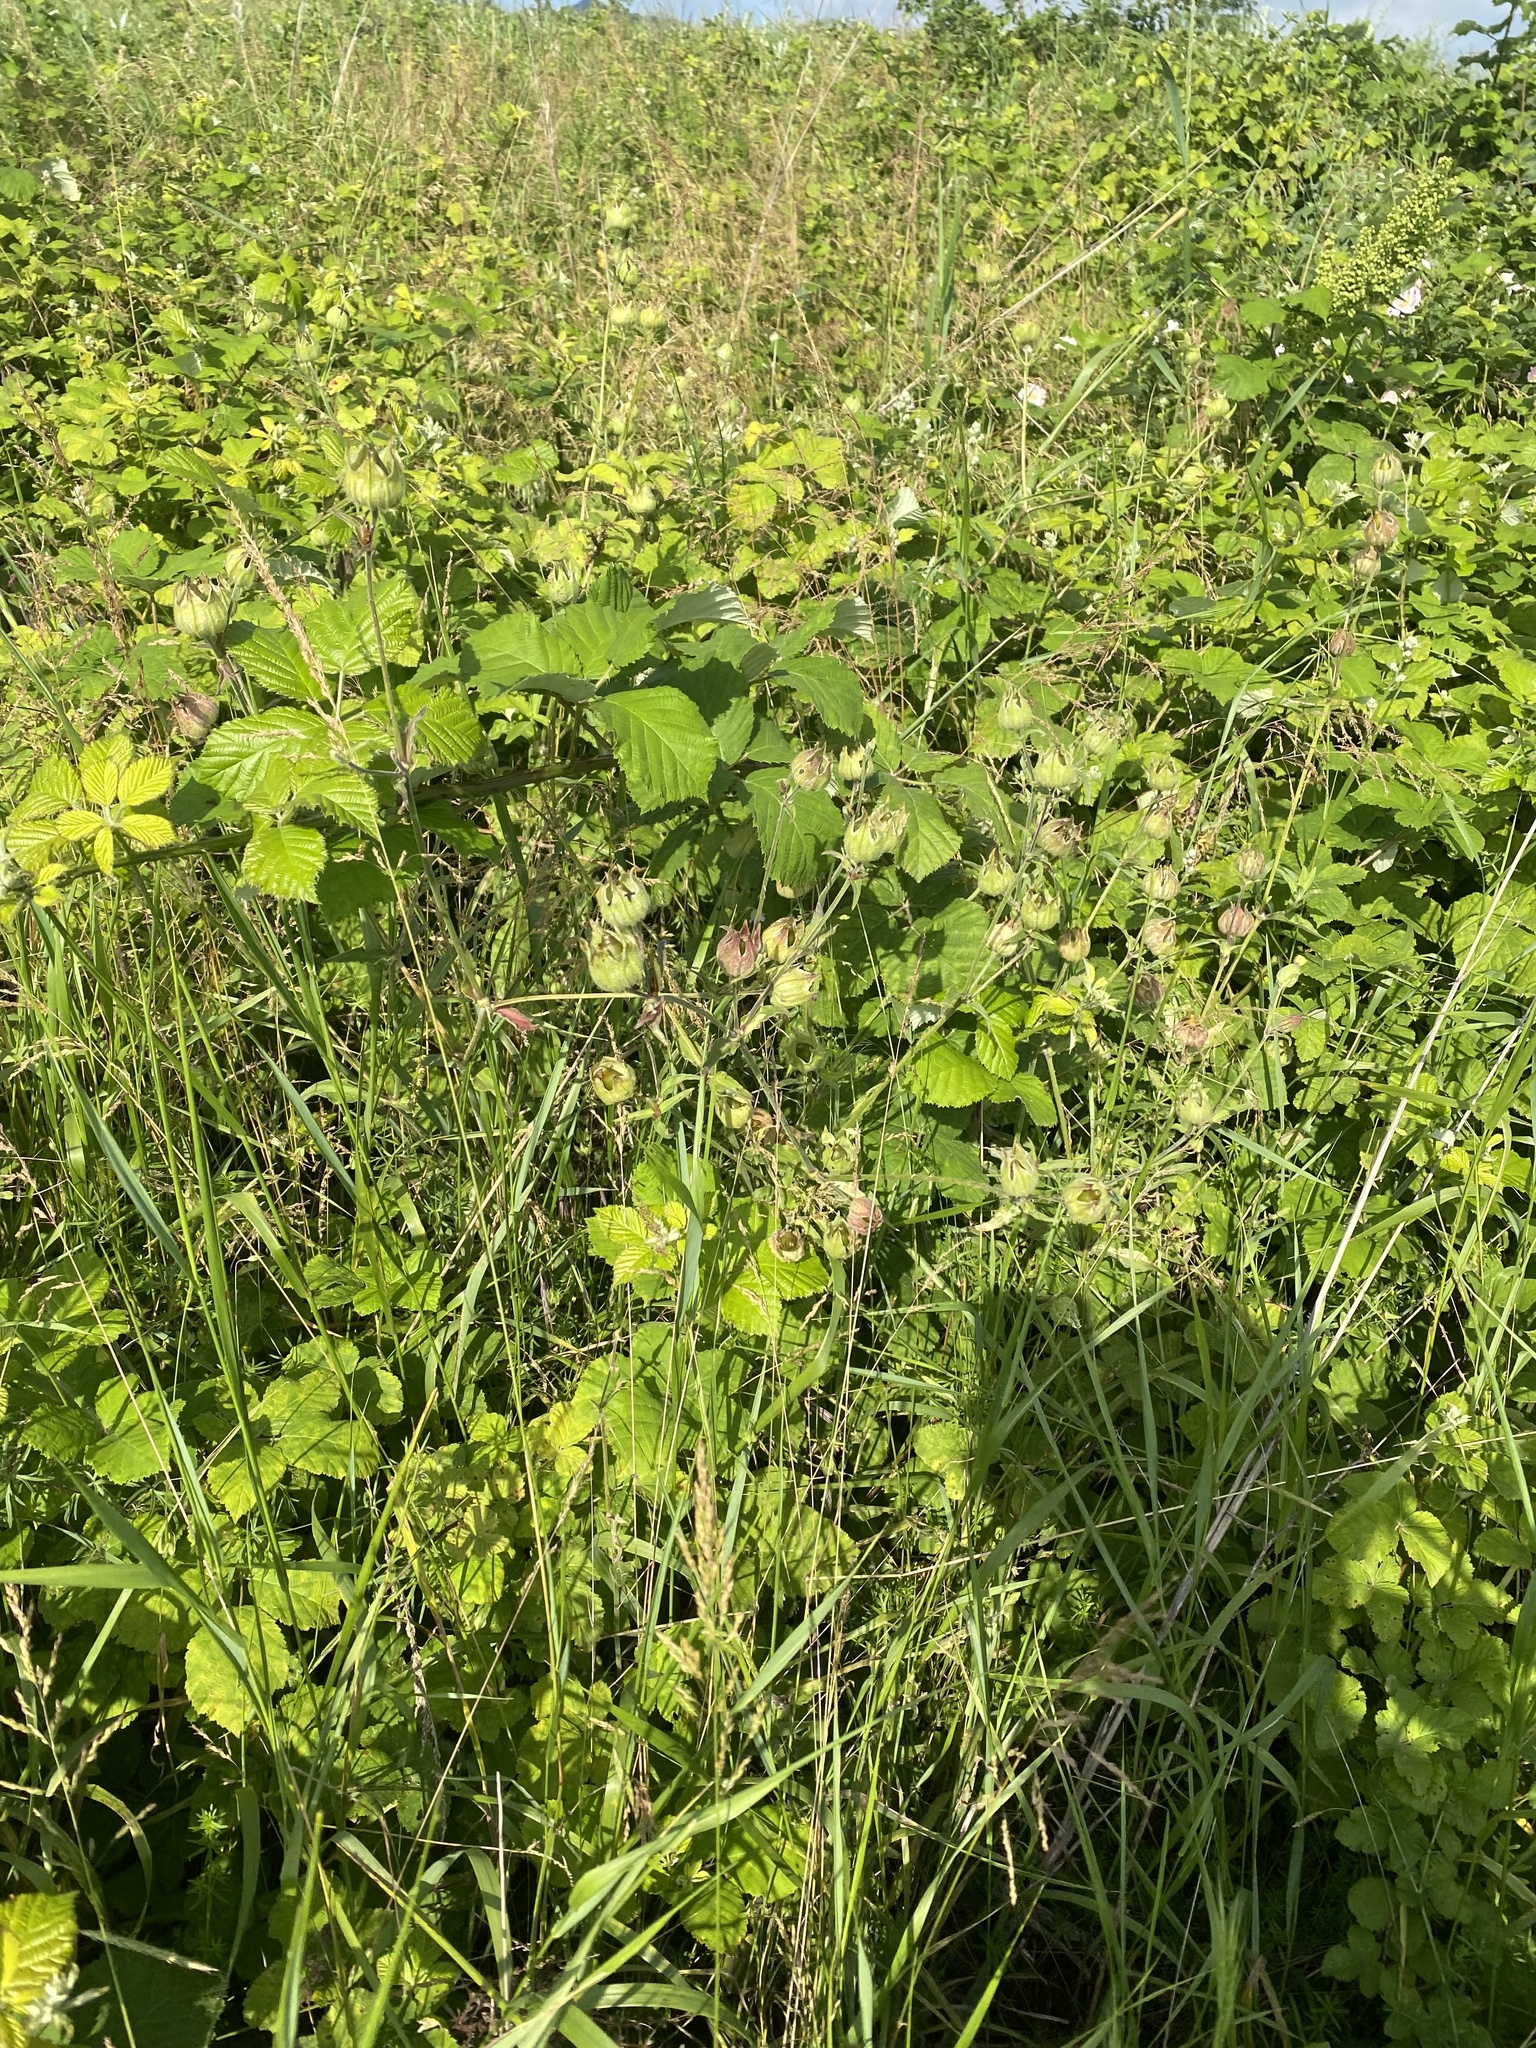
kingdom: Plantae
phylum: Tracheophyta
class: Magnoliopsida
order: Caryophyllales
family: Caryophyllaceae
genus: Silene
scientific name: Silene latifolia
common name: White campion
